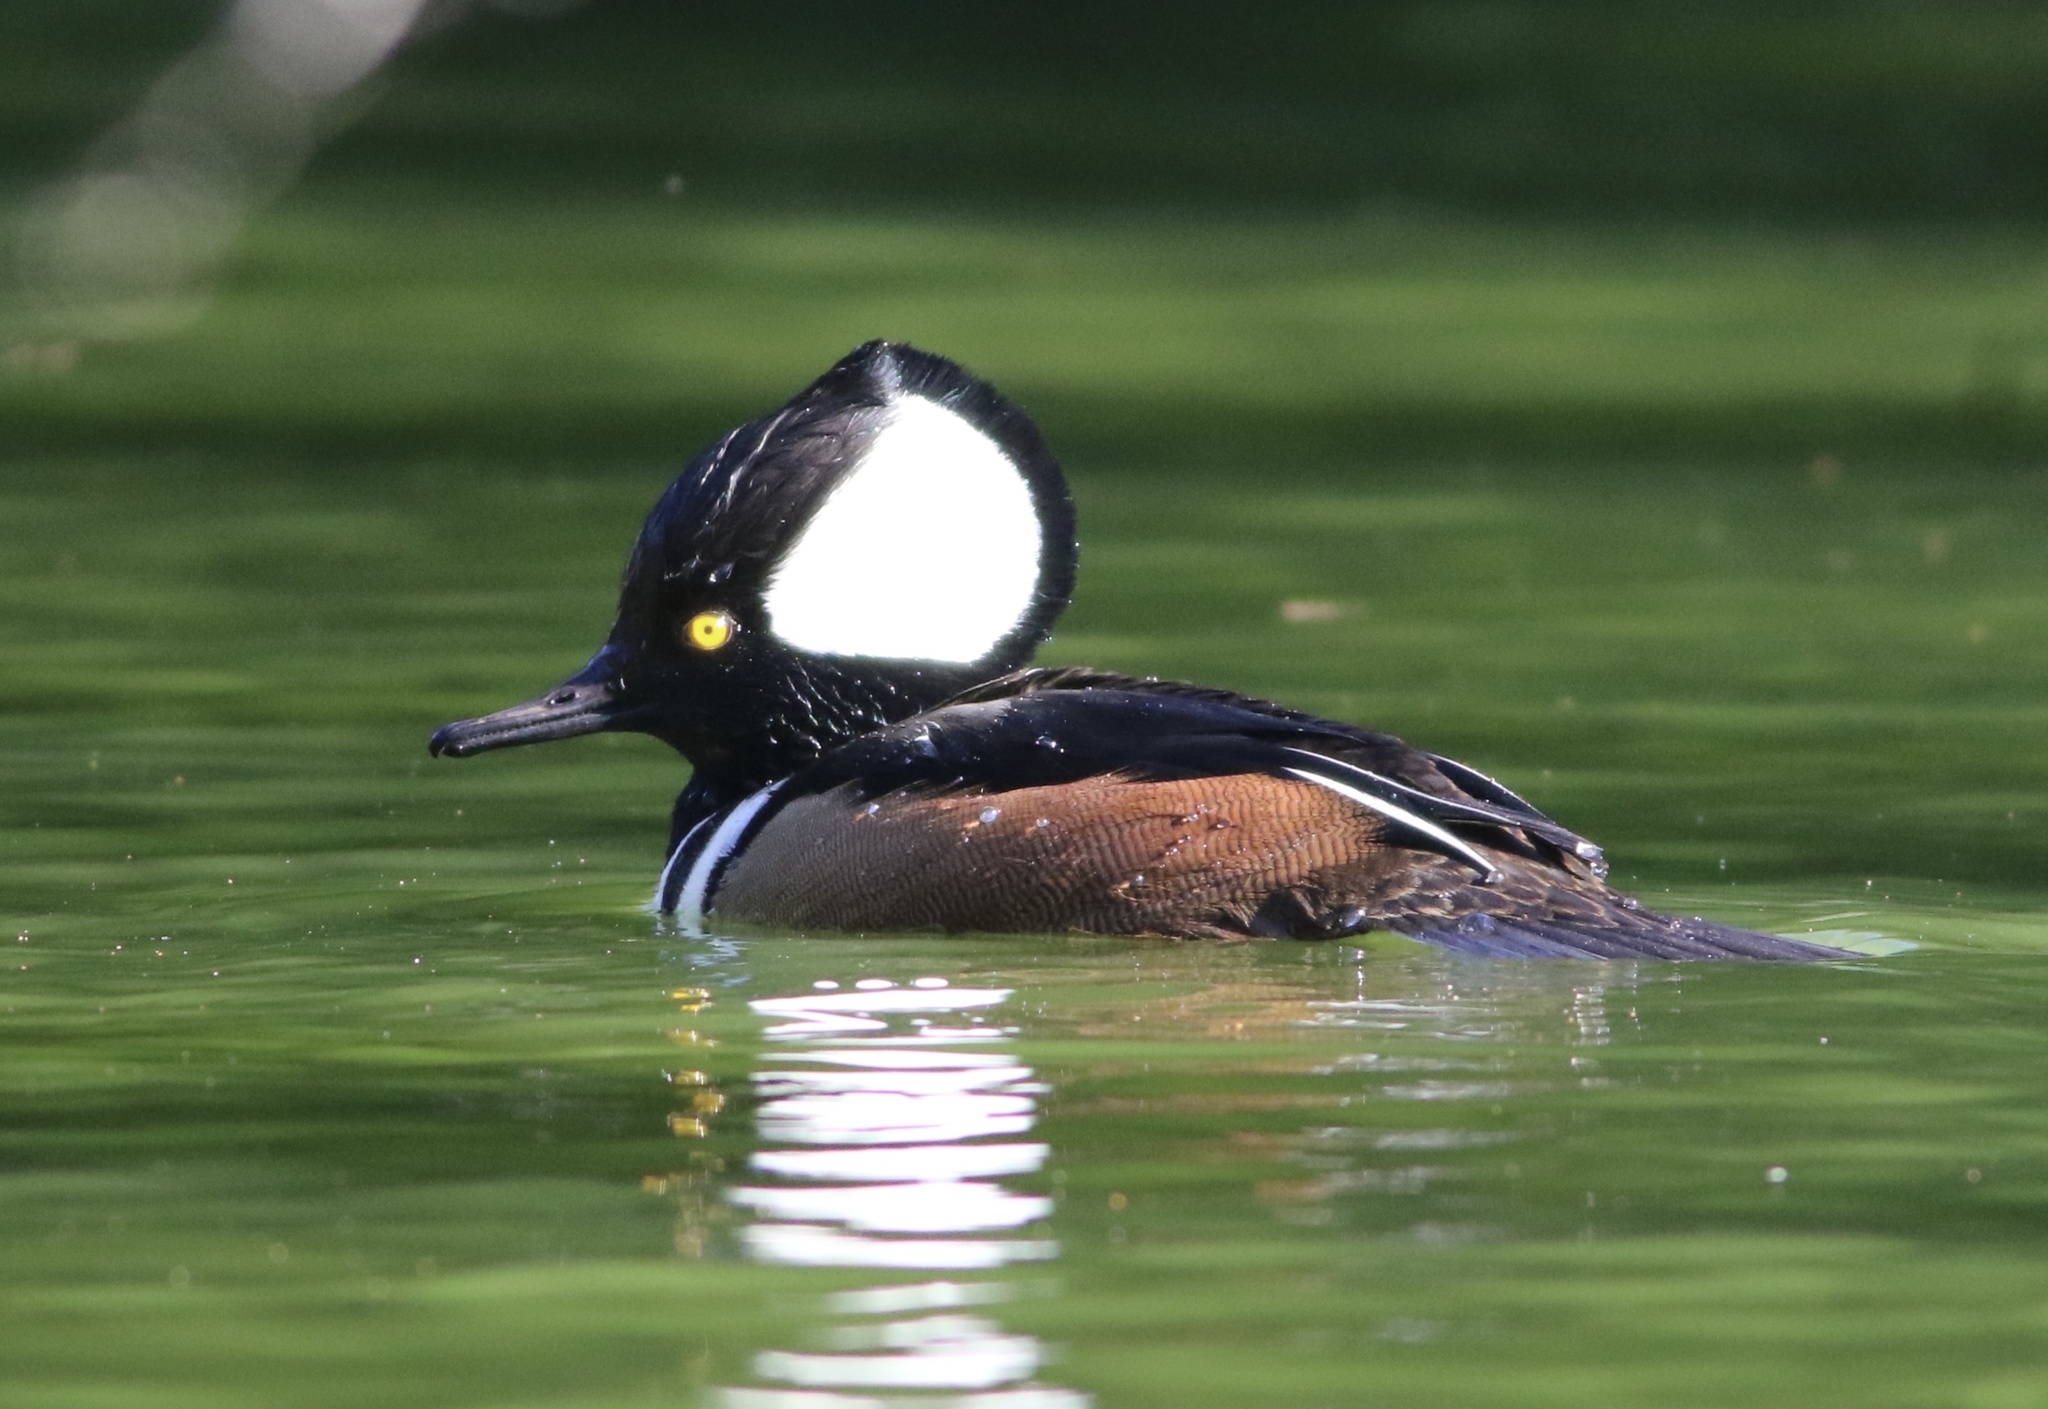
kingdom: Animalia
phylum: Chordata
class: Aves
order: Anseriformes
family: Anatidae
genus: Lophodytes
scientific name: Lophodytes cucullatus
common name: Hooded merganser
